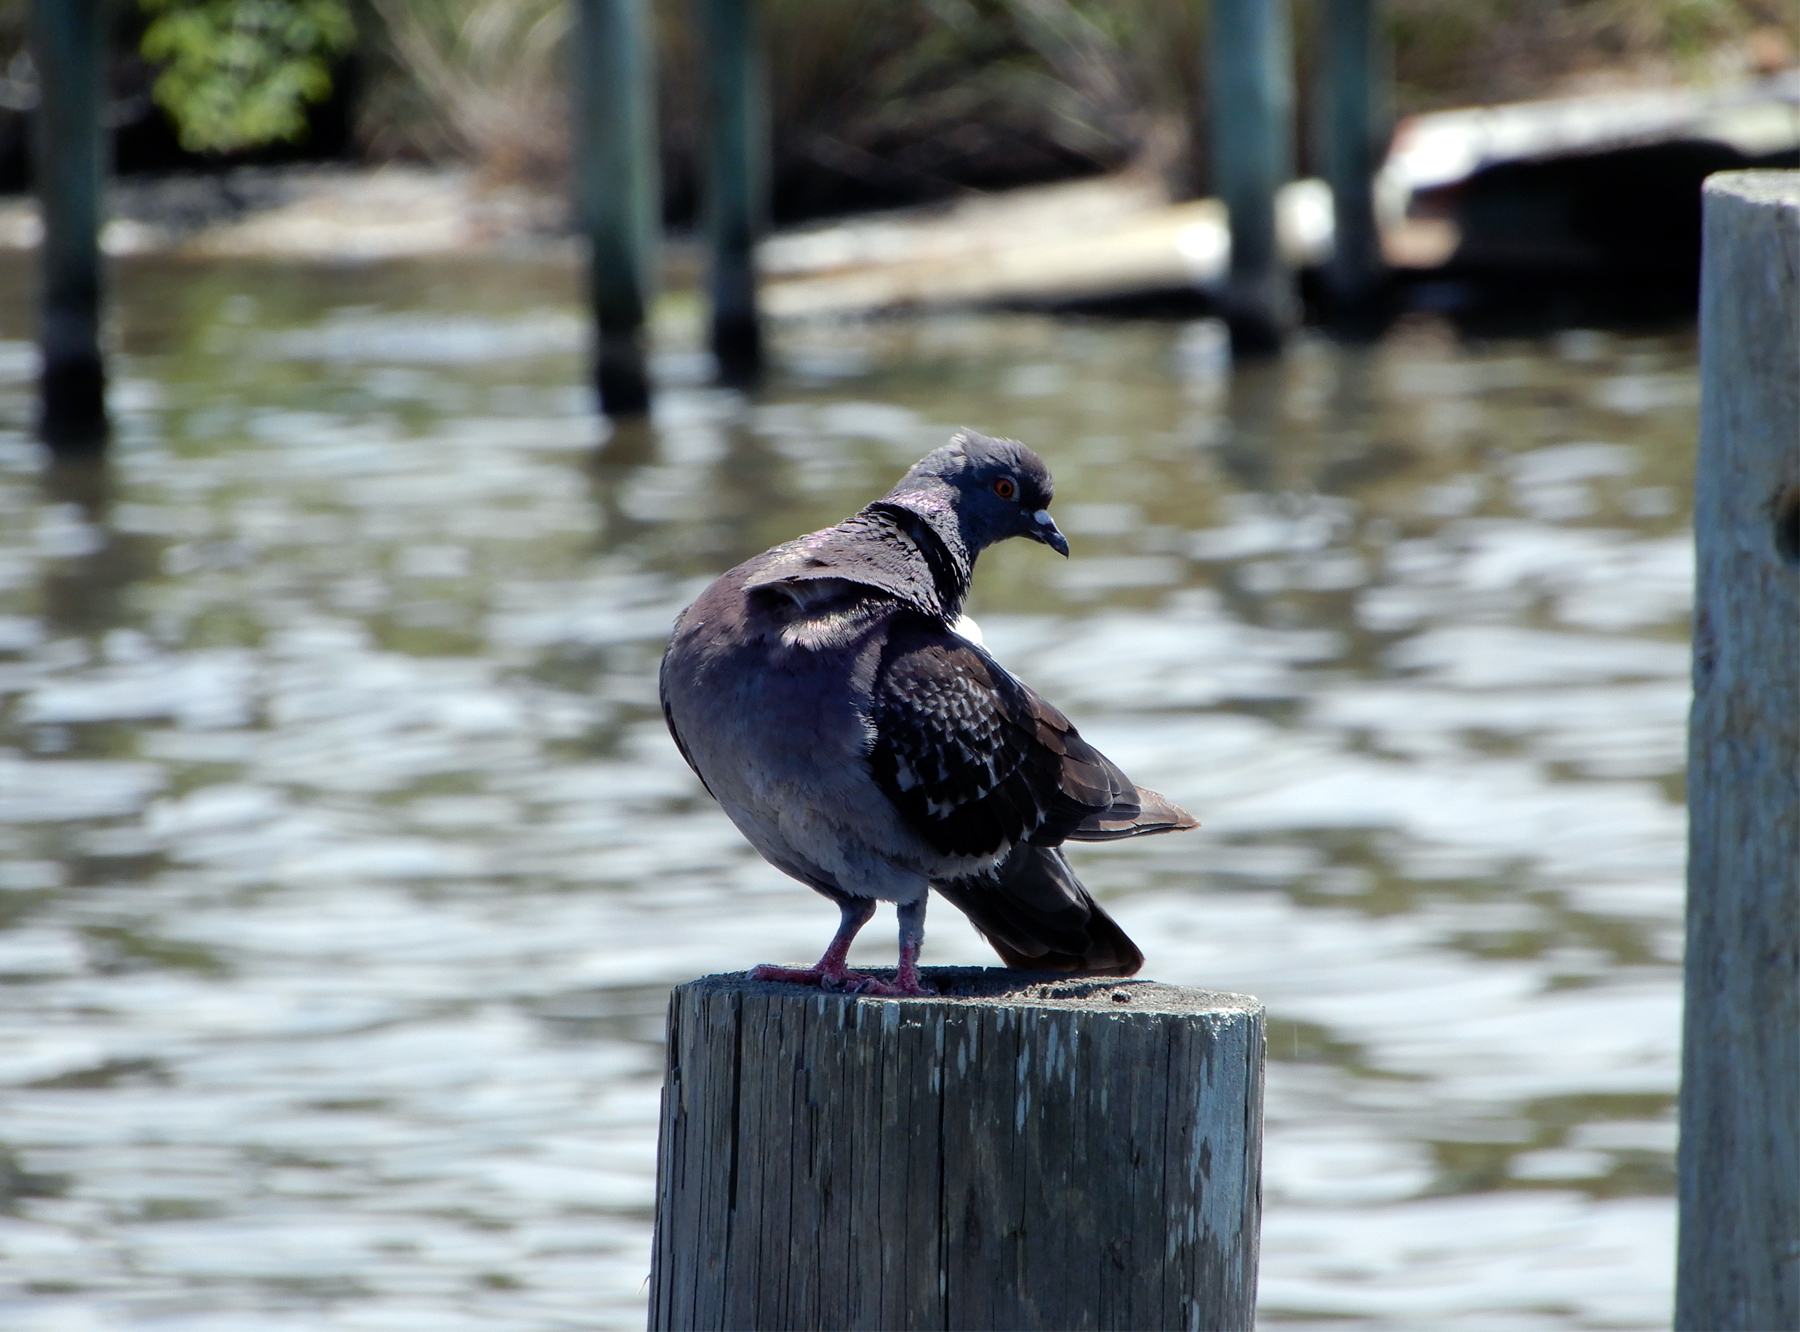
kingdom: Animalia
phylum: Chordata
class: Aves
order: Columbiformes
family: Columbidae
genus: Columba
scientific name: Columba livia
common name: Rock pigeon
